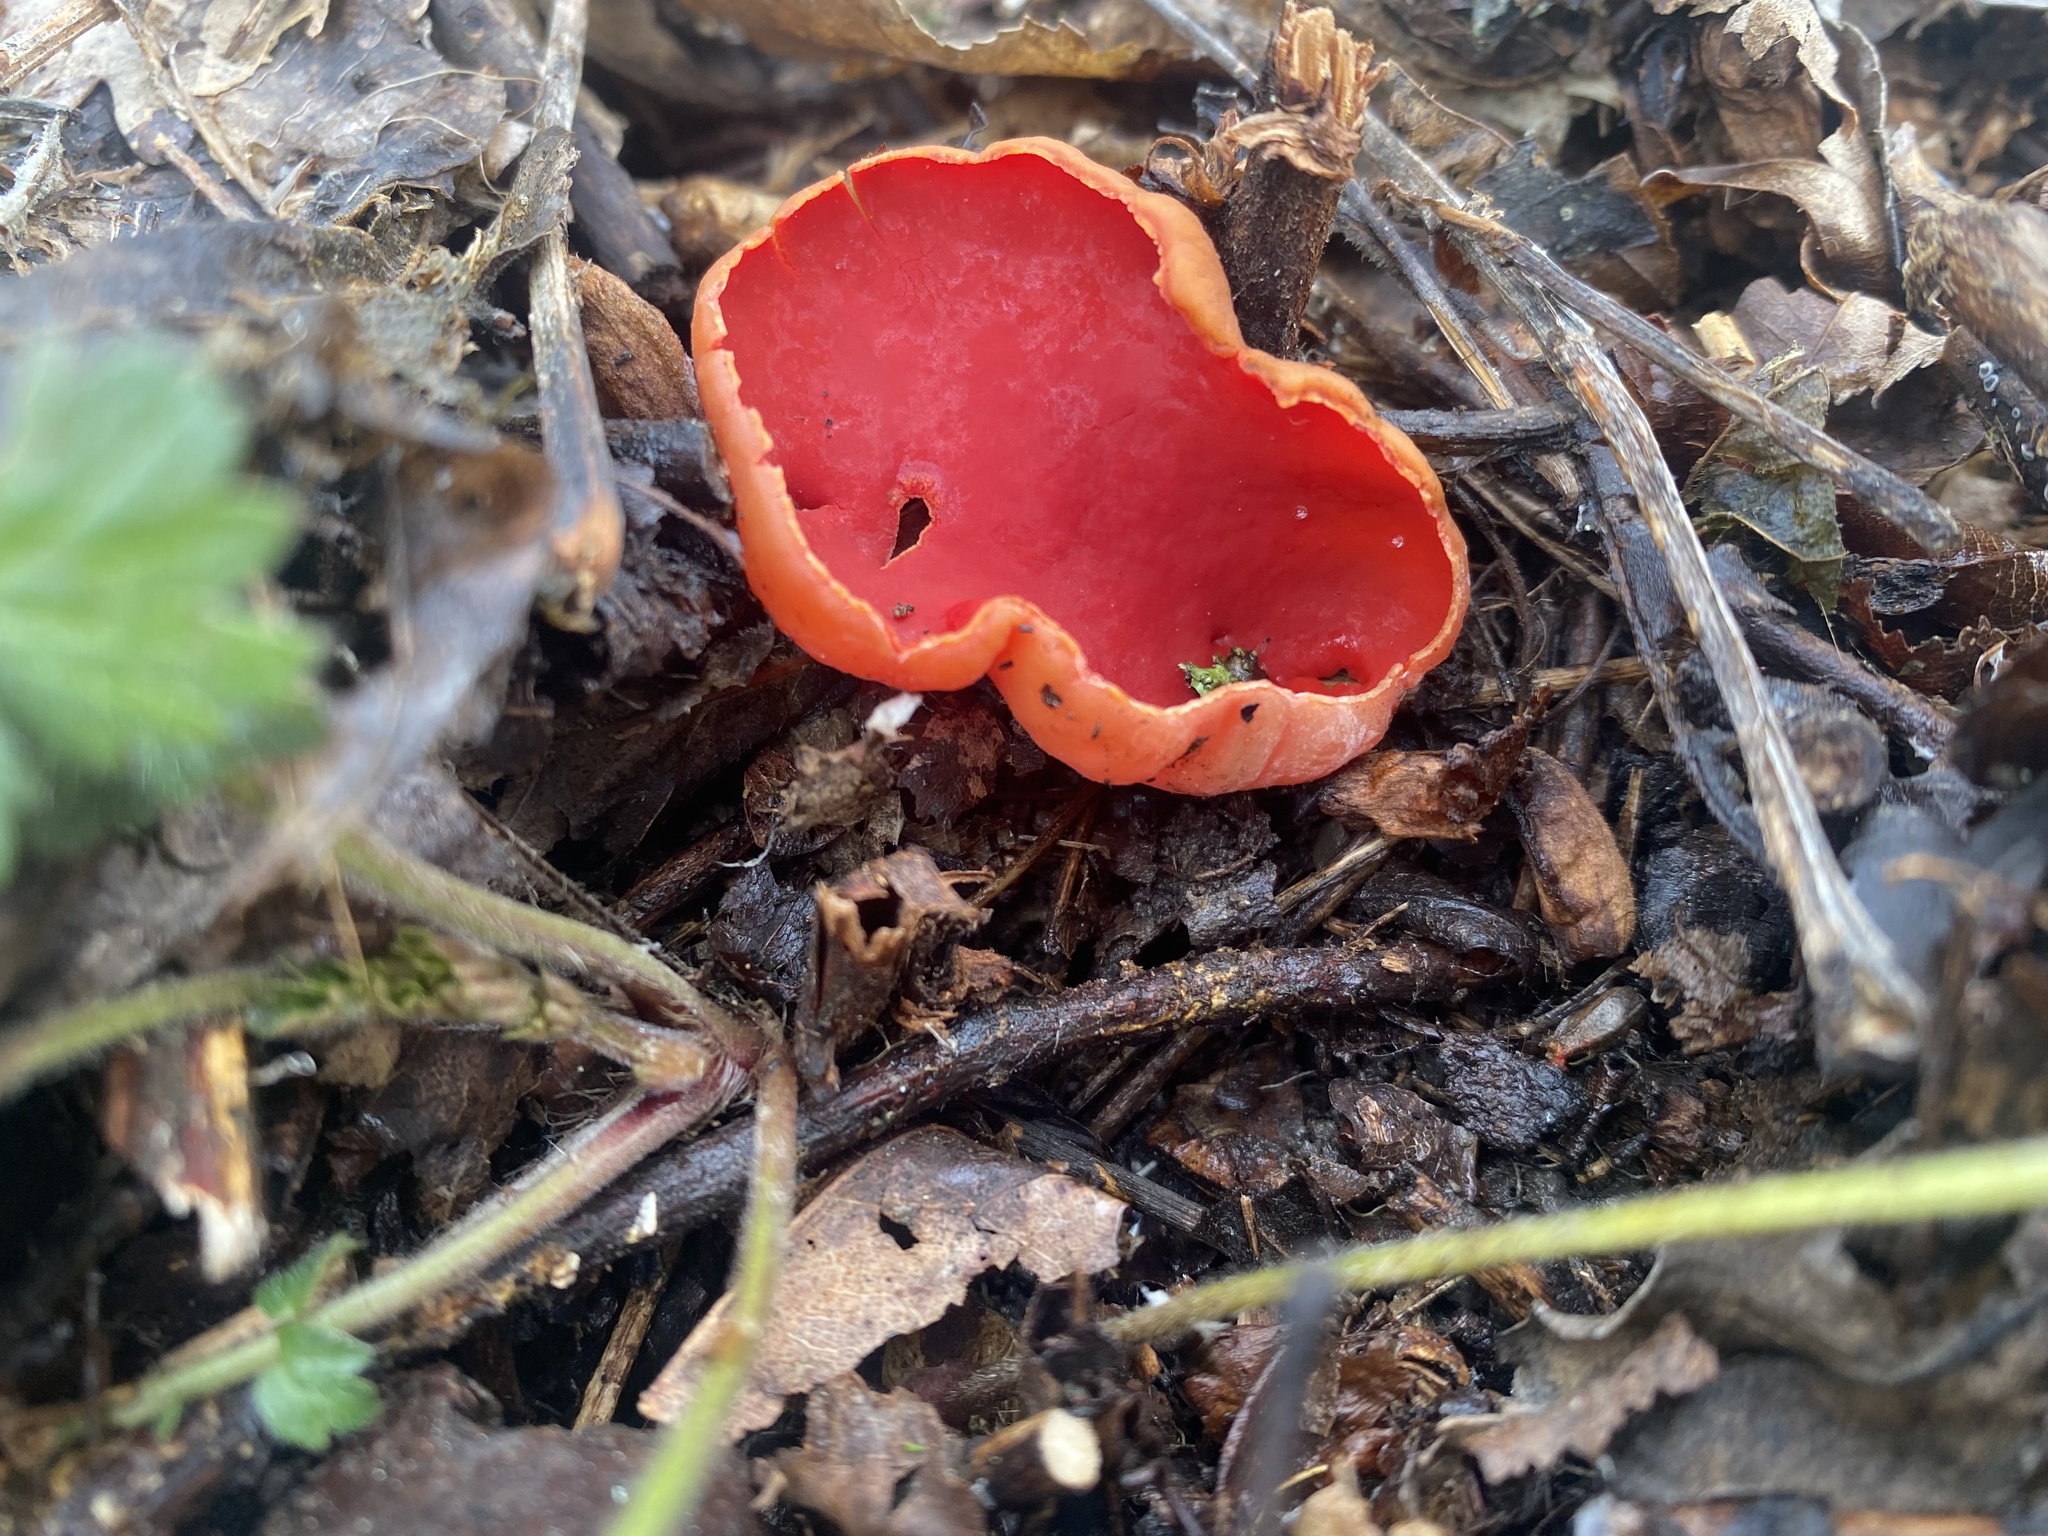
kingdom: Fungi
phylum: Ascomycota
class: Pezizomycetes
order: Pezizales
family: Sarcoscyphaceae
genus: Sarcoscypha
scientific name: Sarcoscypha
